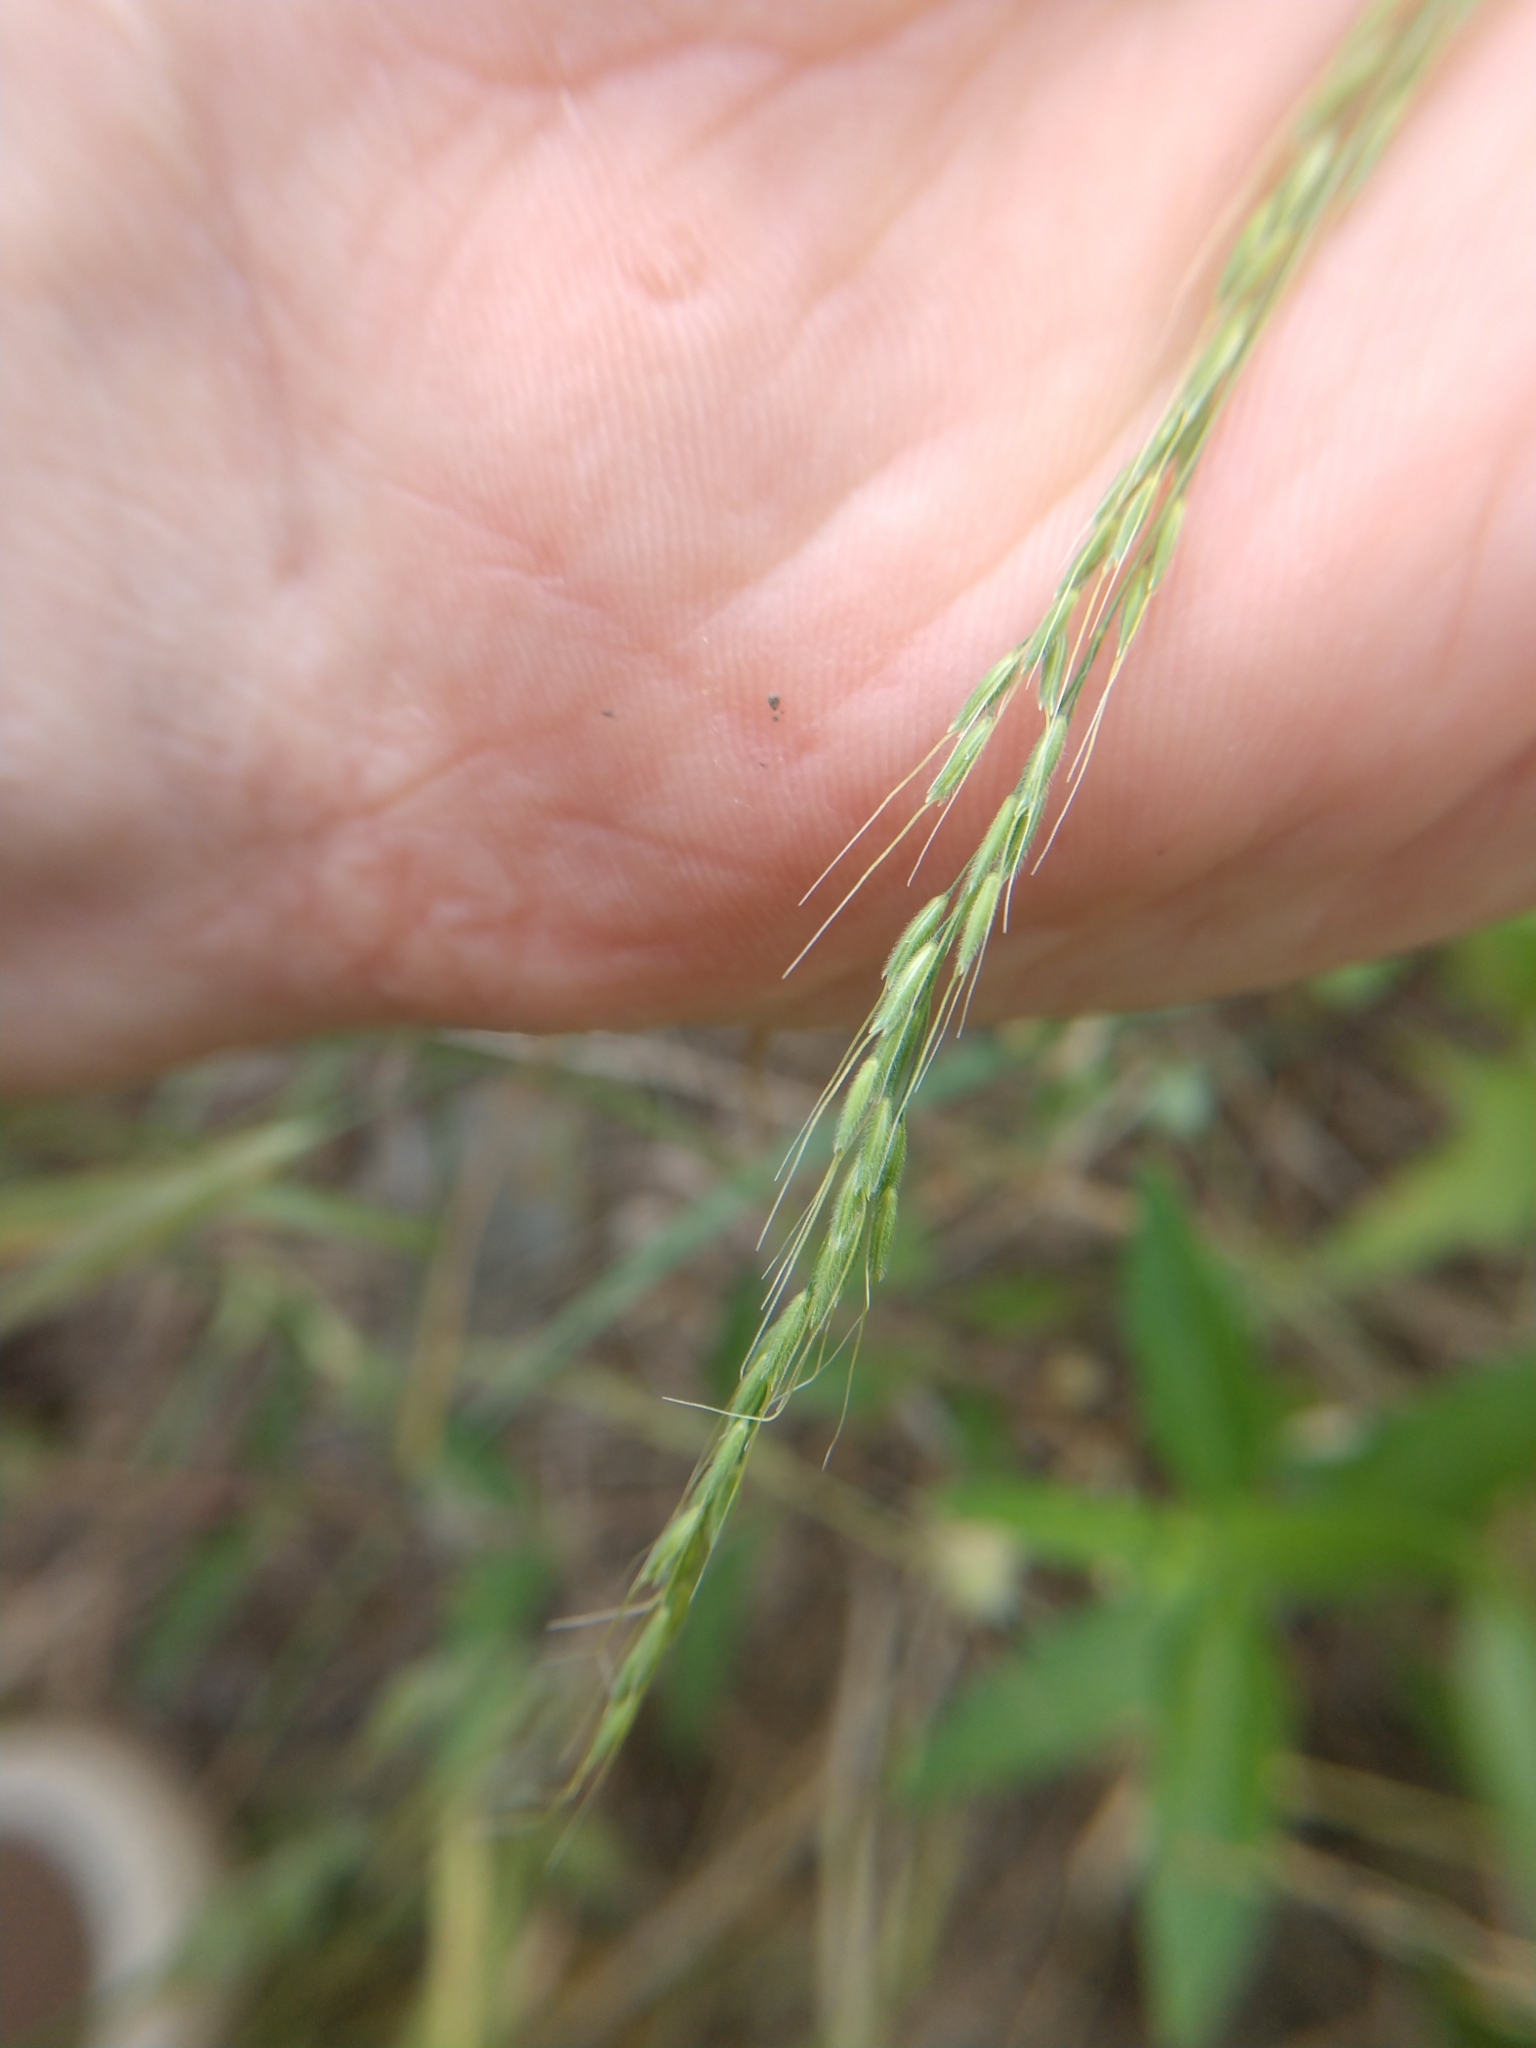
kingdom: Plantae
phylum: Tracheophyta
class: Liliopsida
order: Poales
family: Poaceae
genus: Limnodea
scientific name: Limnodea arkansana
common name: Ozark-grass
